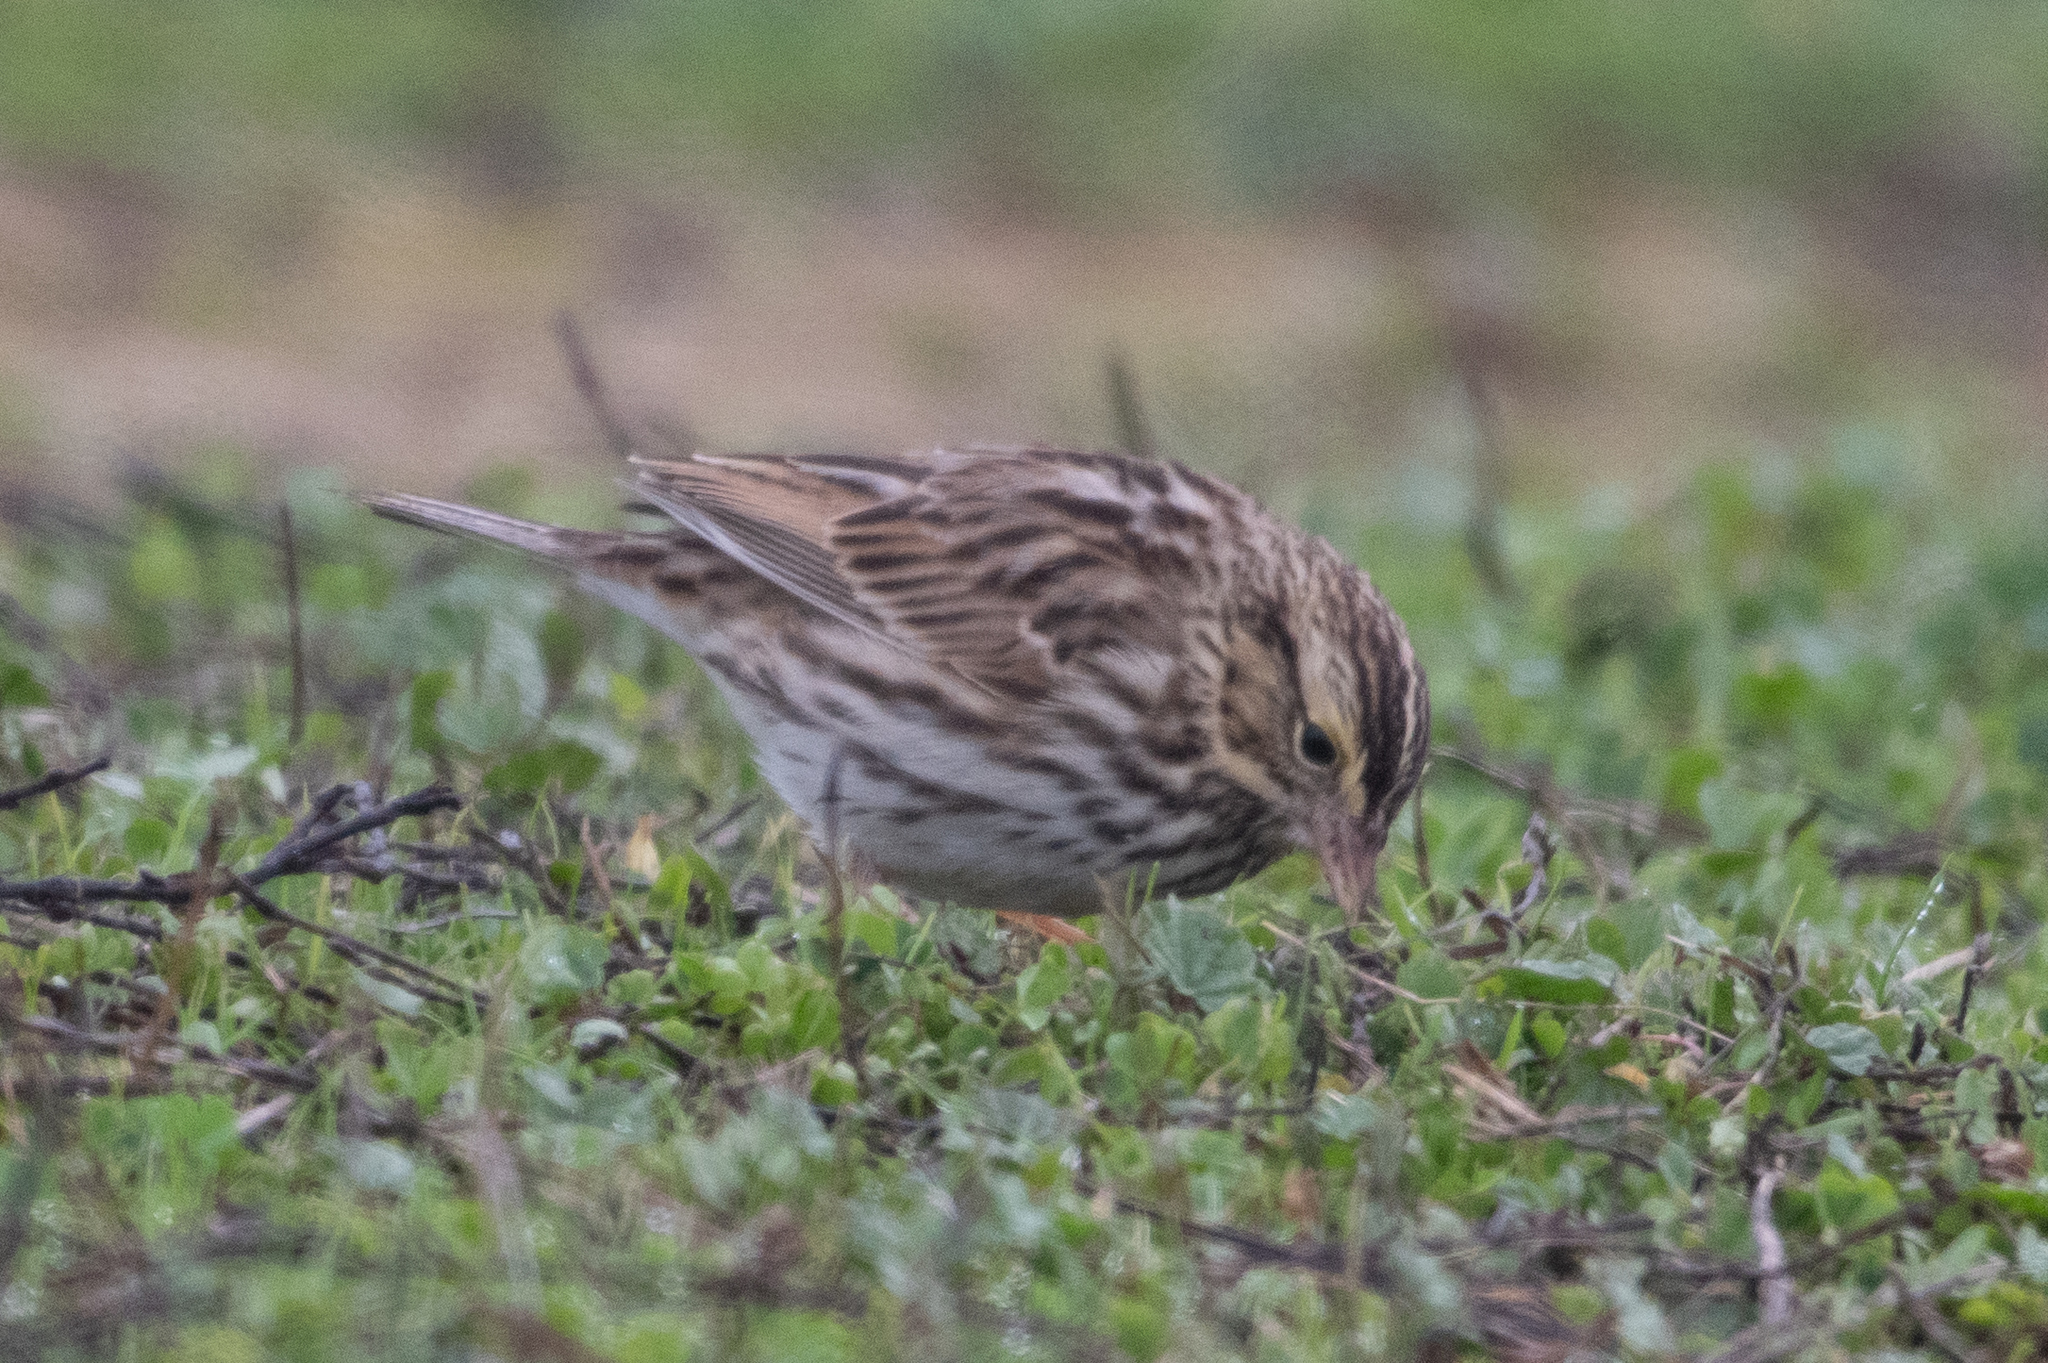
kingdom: Animalia
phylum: Chordata
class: Aves
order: Passeriformes
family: Passerellidae
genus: Passerculus
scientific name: Passerculus sandwichensis
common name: Savannah sparrow
